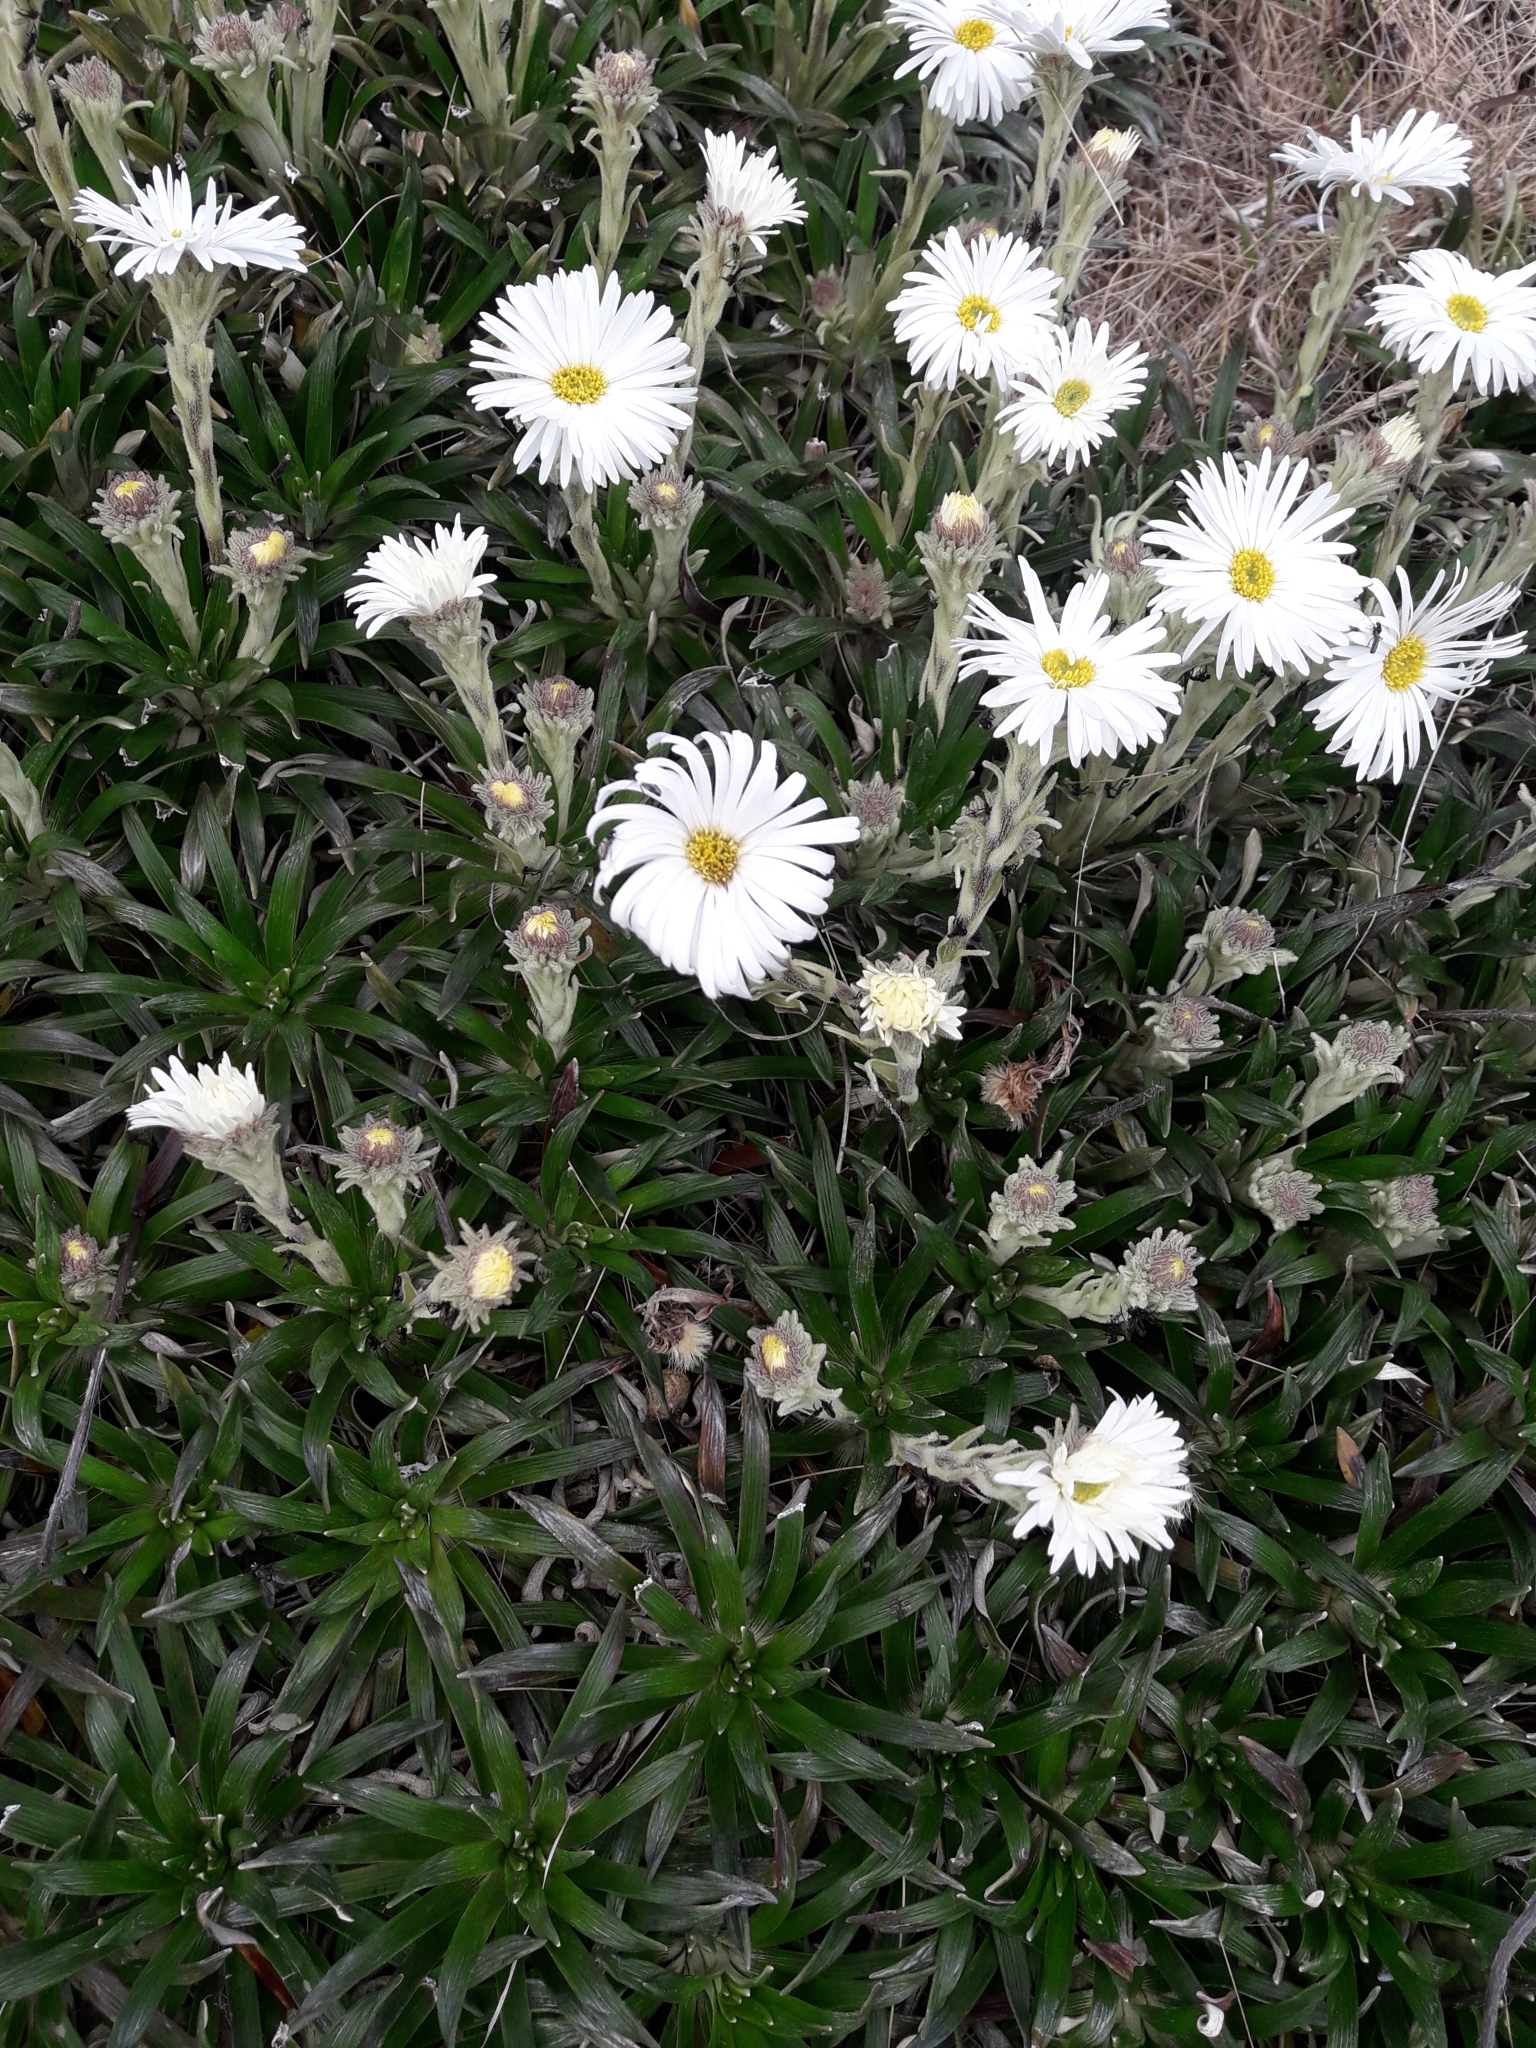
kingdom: Plantae
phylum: Tracheophyta
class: Magnoliopsida
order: Asterales
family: Asteraceae
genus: Celmisia
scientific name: Celmisia viscosa
